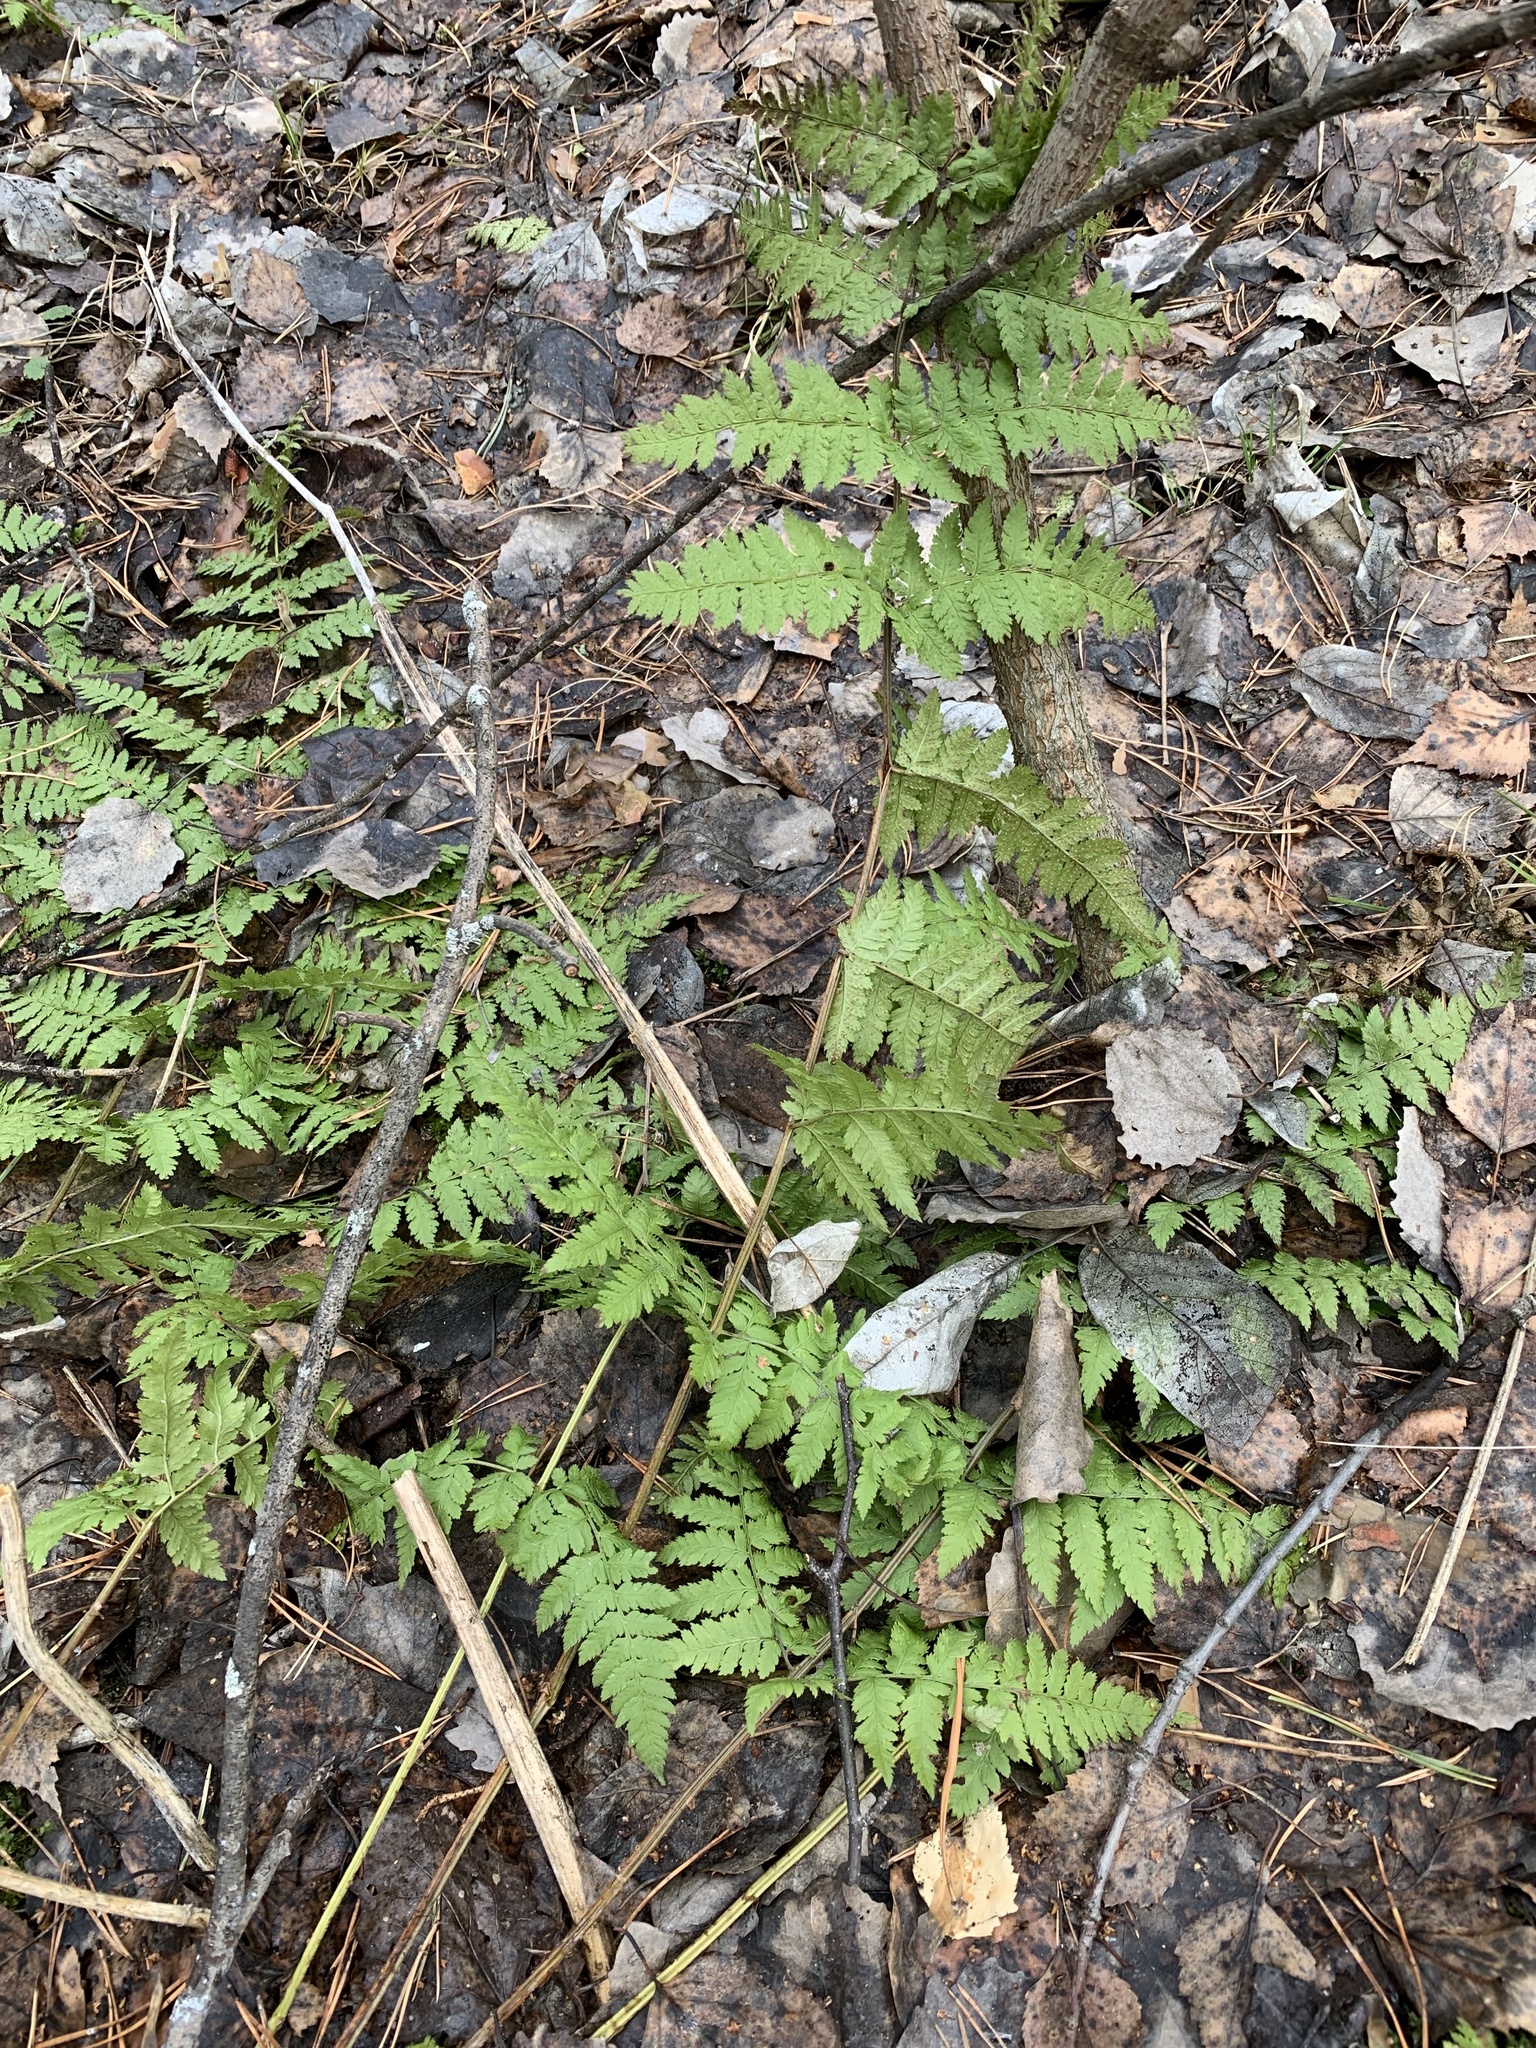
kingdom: Plantae
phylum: Tracheophyta
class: Polypodiopsida
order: Polypodiales
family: Dryopteridaceae
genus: Dryopteris
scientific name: Dryopteris carthusiana
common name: Narrow buckler-fern
